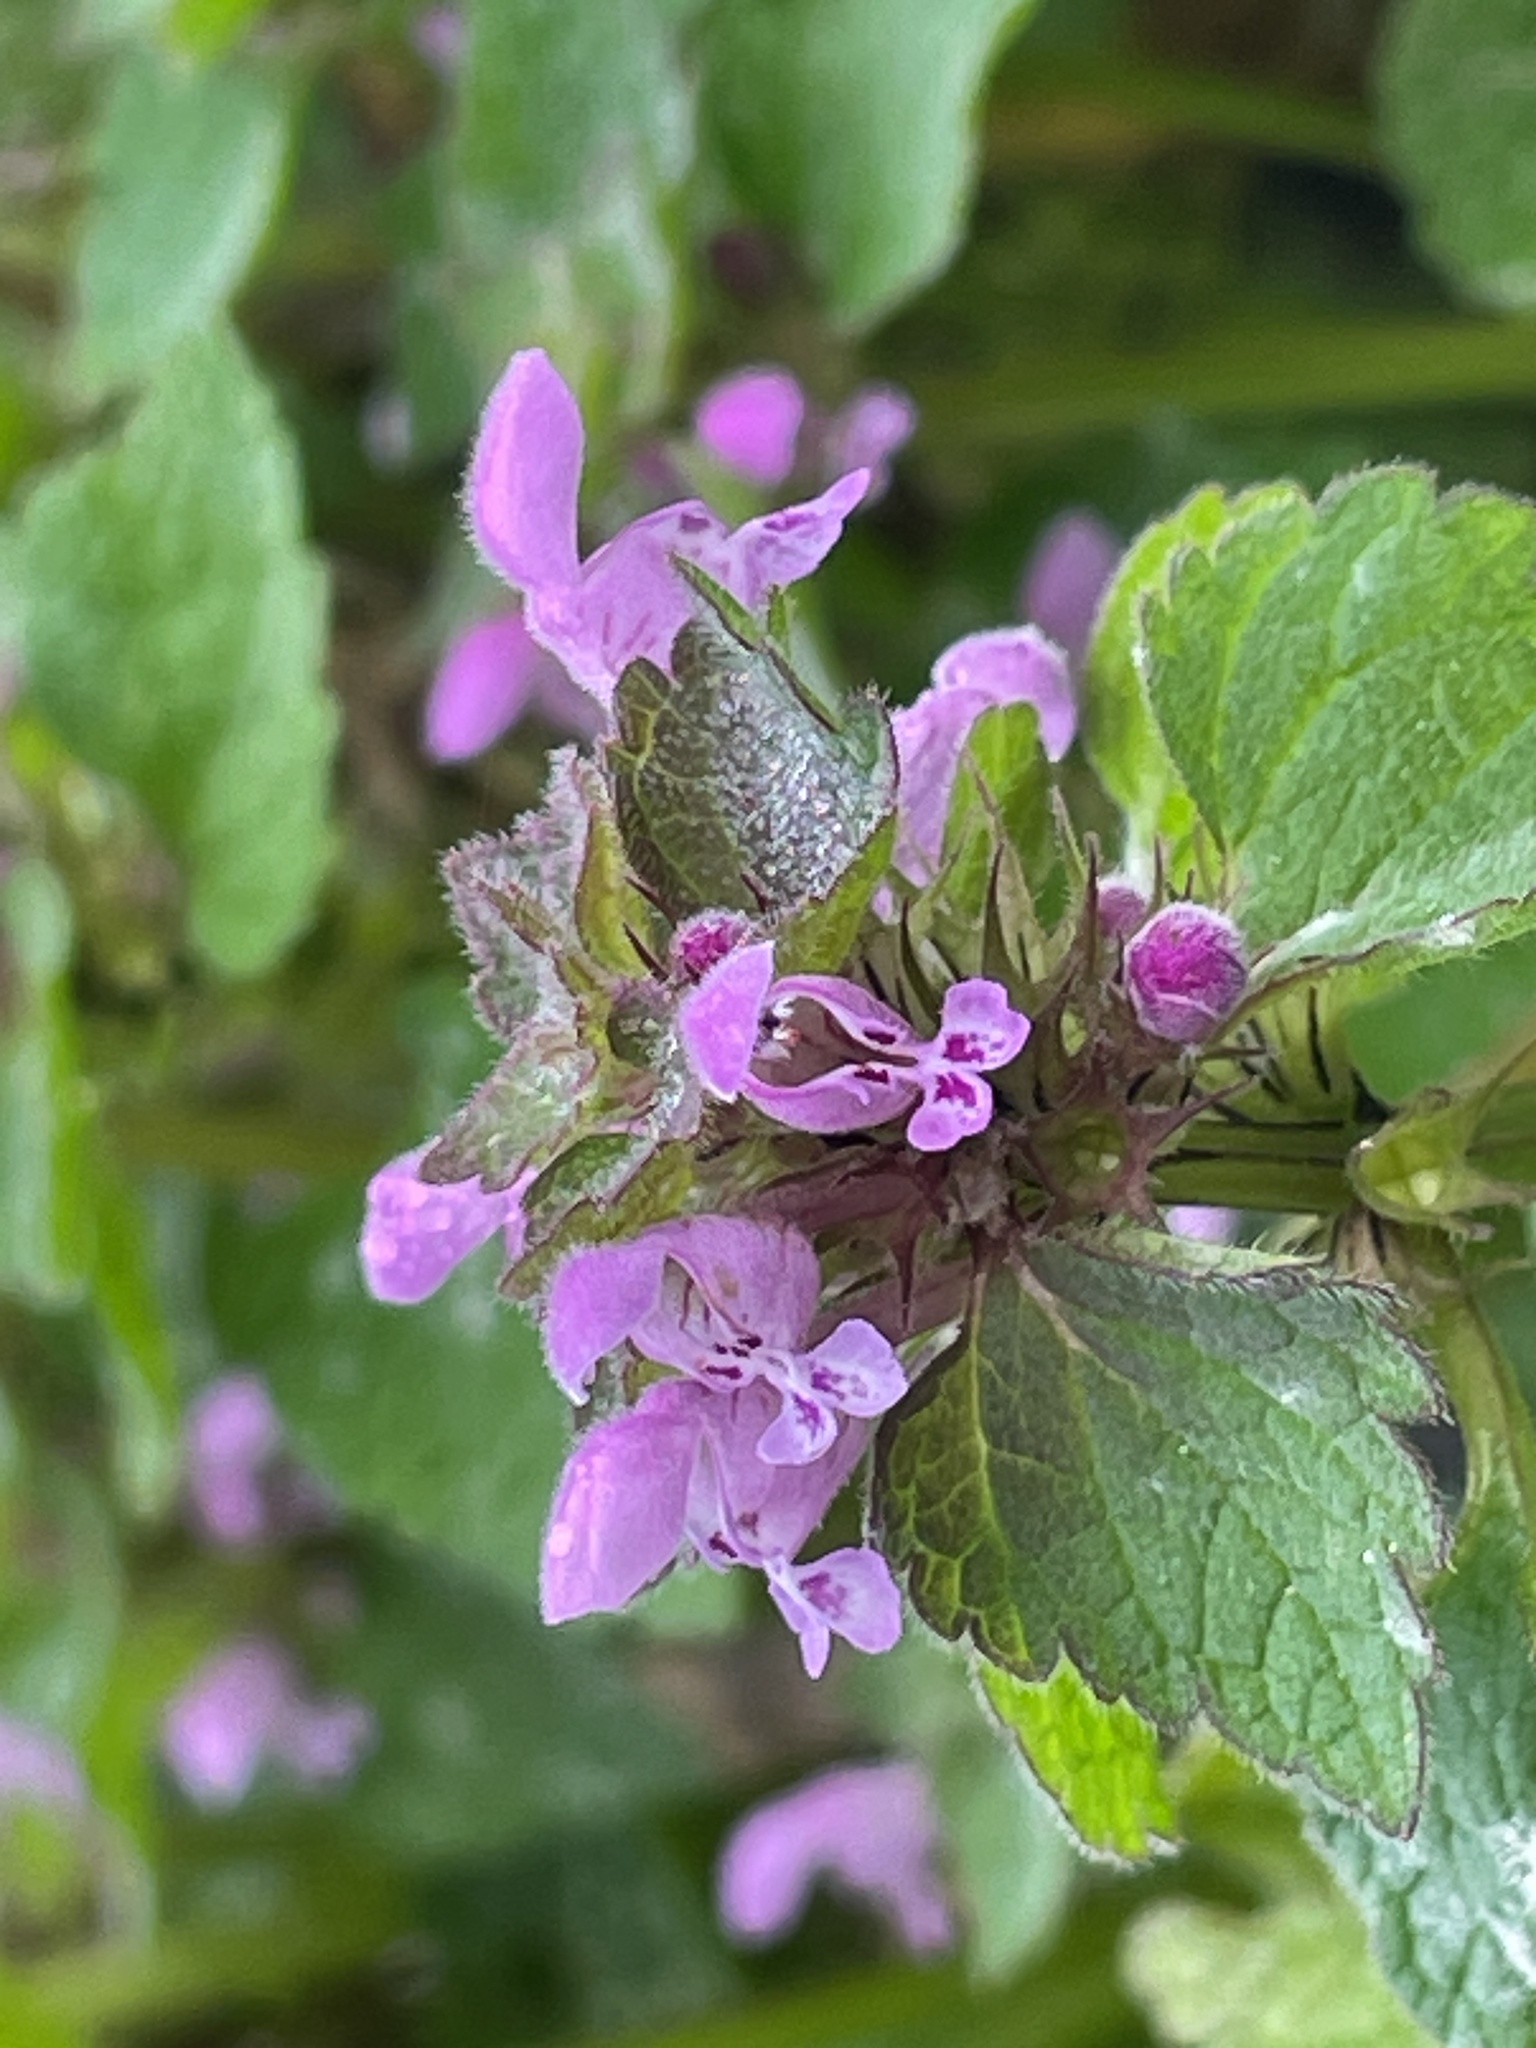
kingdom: Plantae
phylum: Tracheophyta
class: Magnoliopsida
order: Lamiales
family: Lamiaceae
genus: Lamium
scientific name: Lamium purpureum
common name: Red dead-nettle
